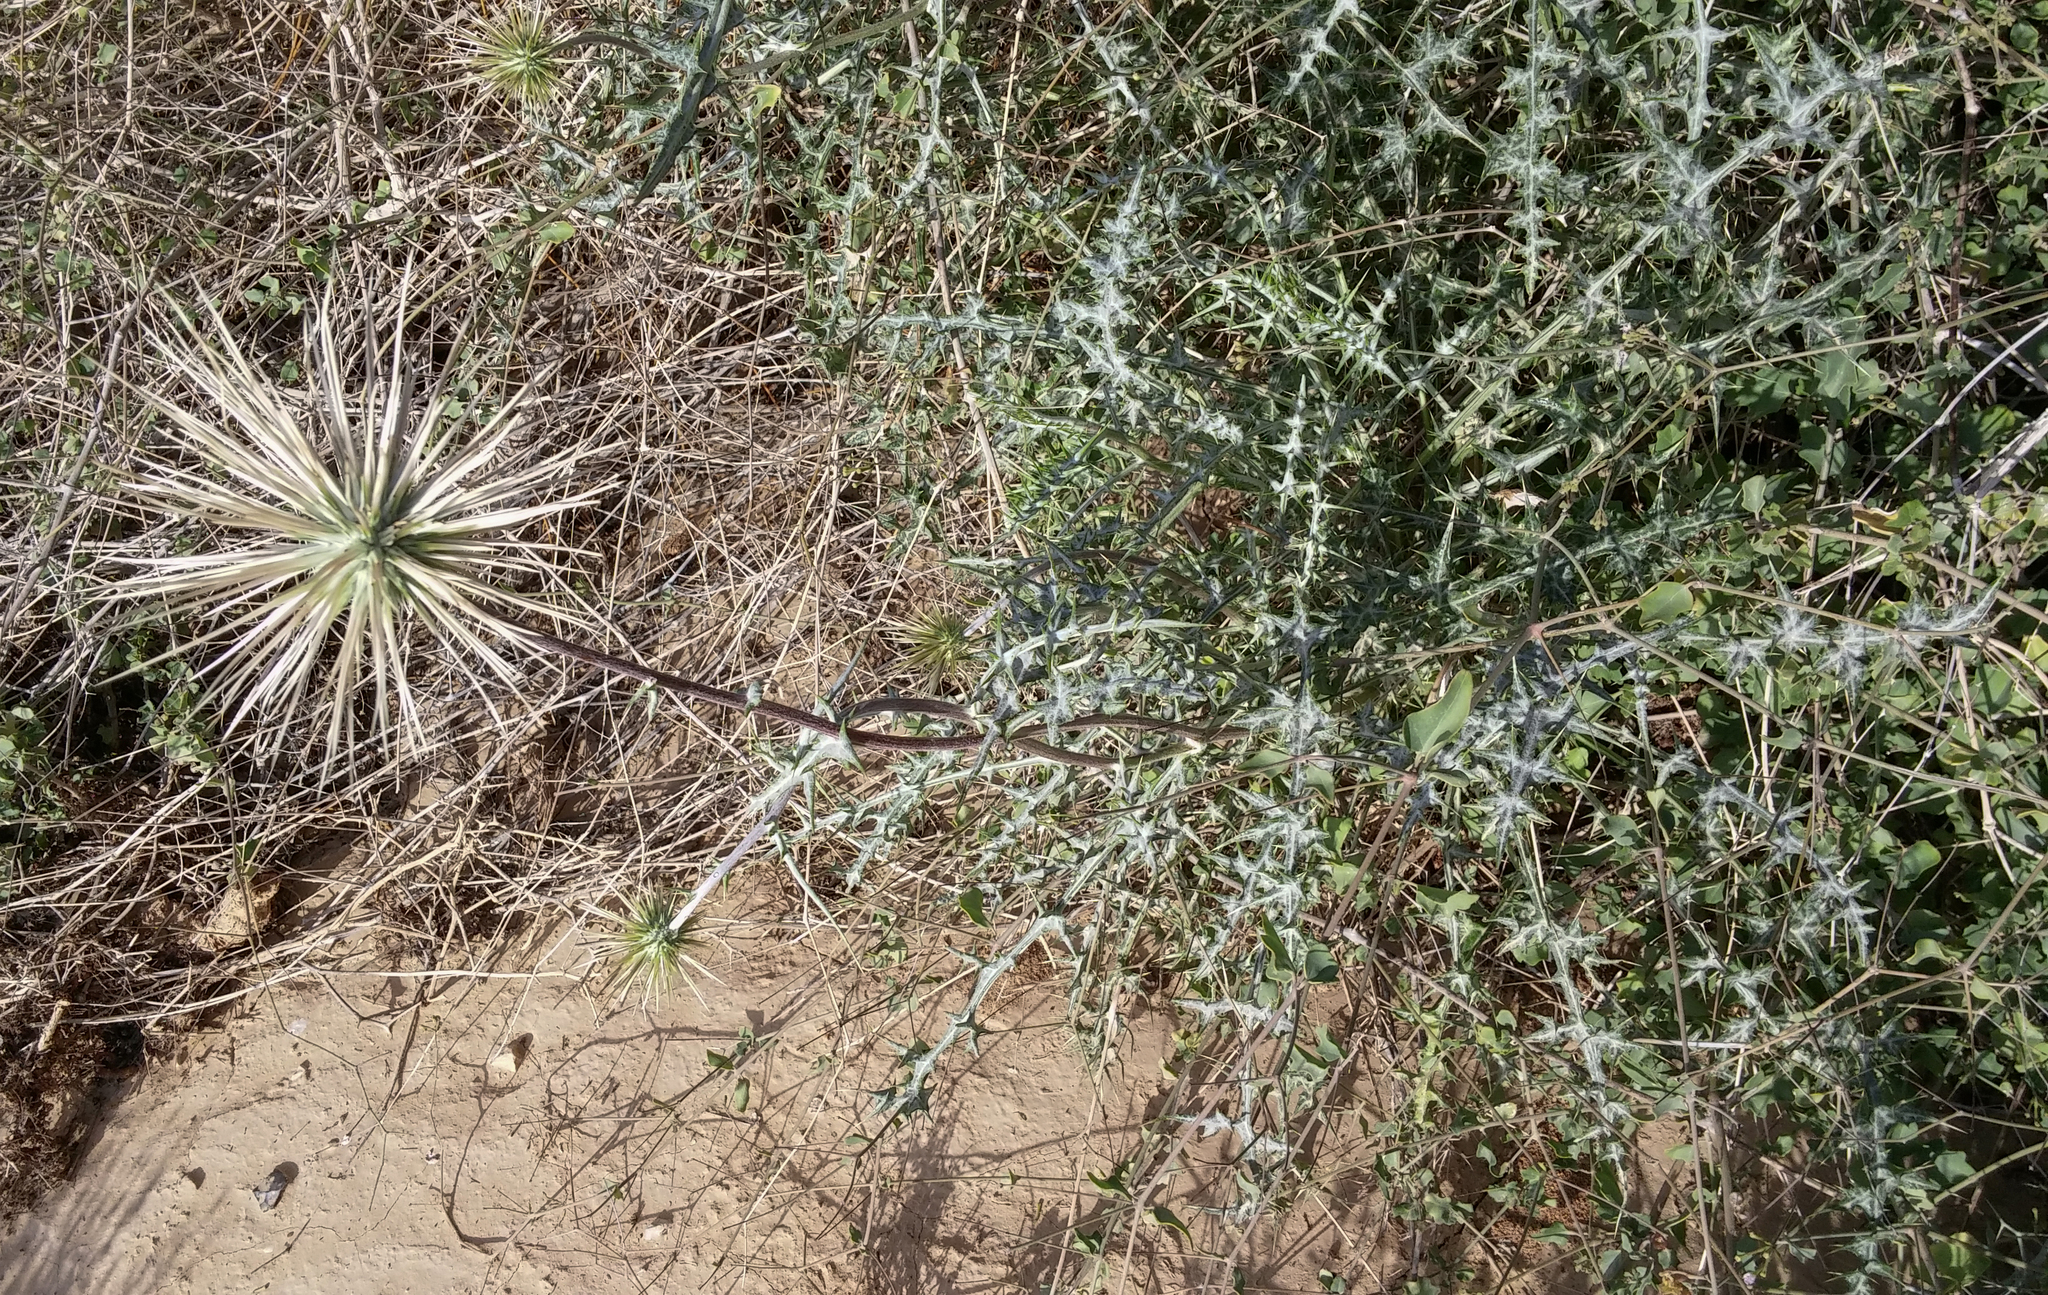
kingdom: Plantae
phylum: Tracheophyta
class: Magnoliopsida
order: Asterales
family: Asteraceae
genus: Echinops
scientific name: Echinops polyceras
